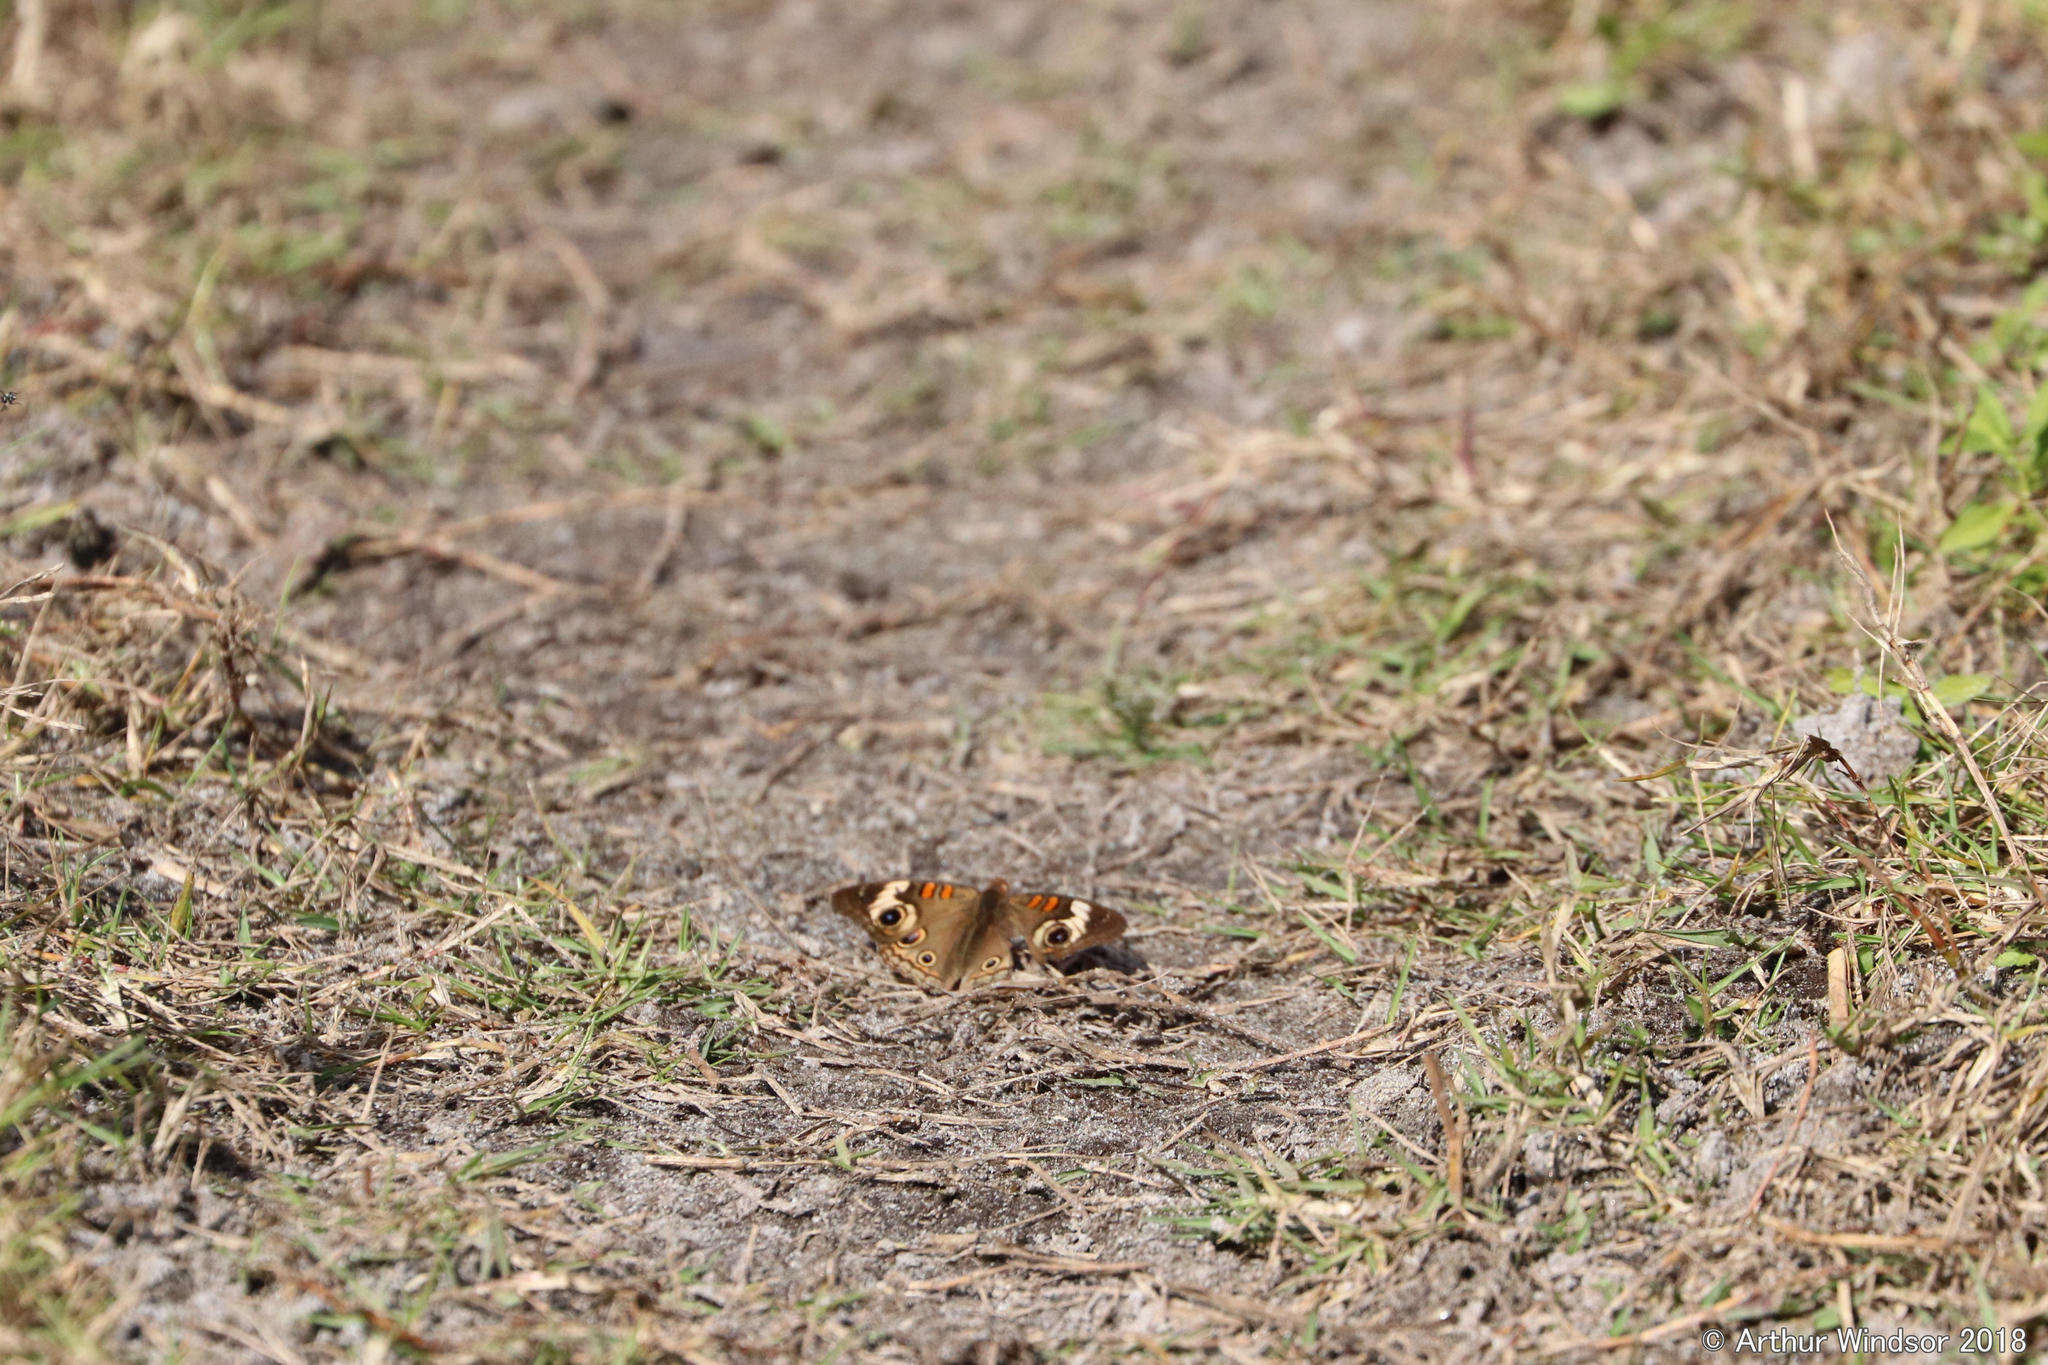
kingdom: Animalia
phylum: Arthropoda
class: Insecta
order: Lepidoptera
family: Nymphalidae
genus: Junonia
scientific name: Junonia coenia
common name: Common buckeye
